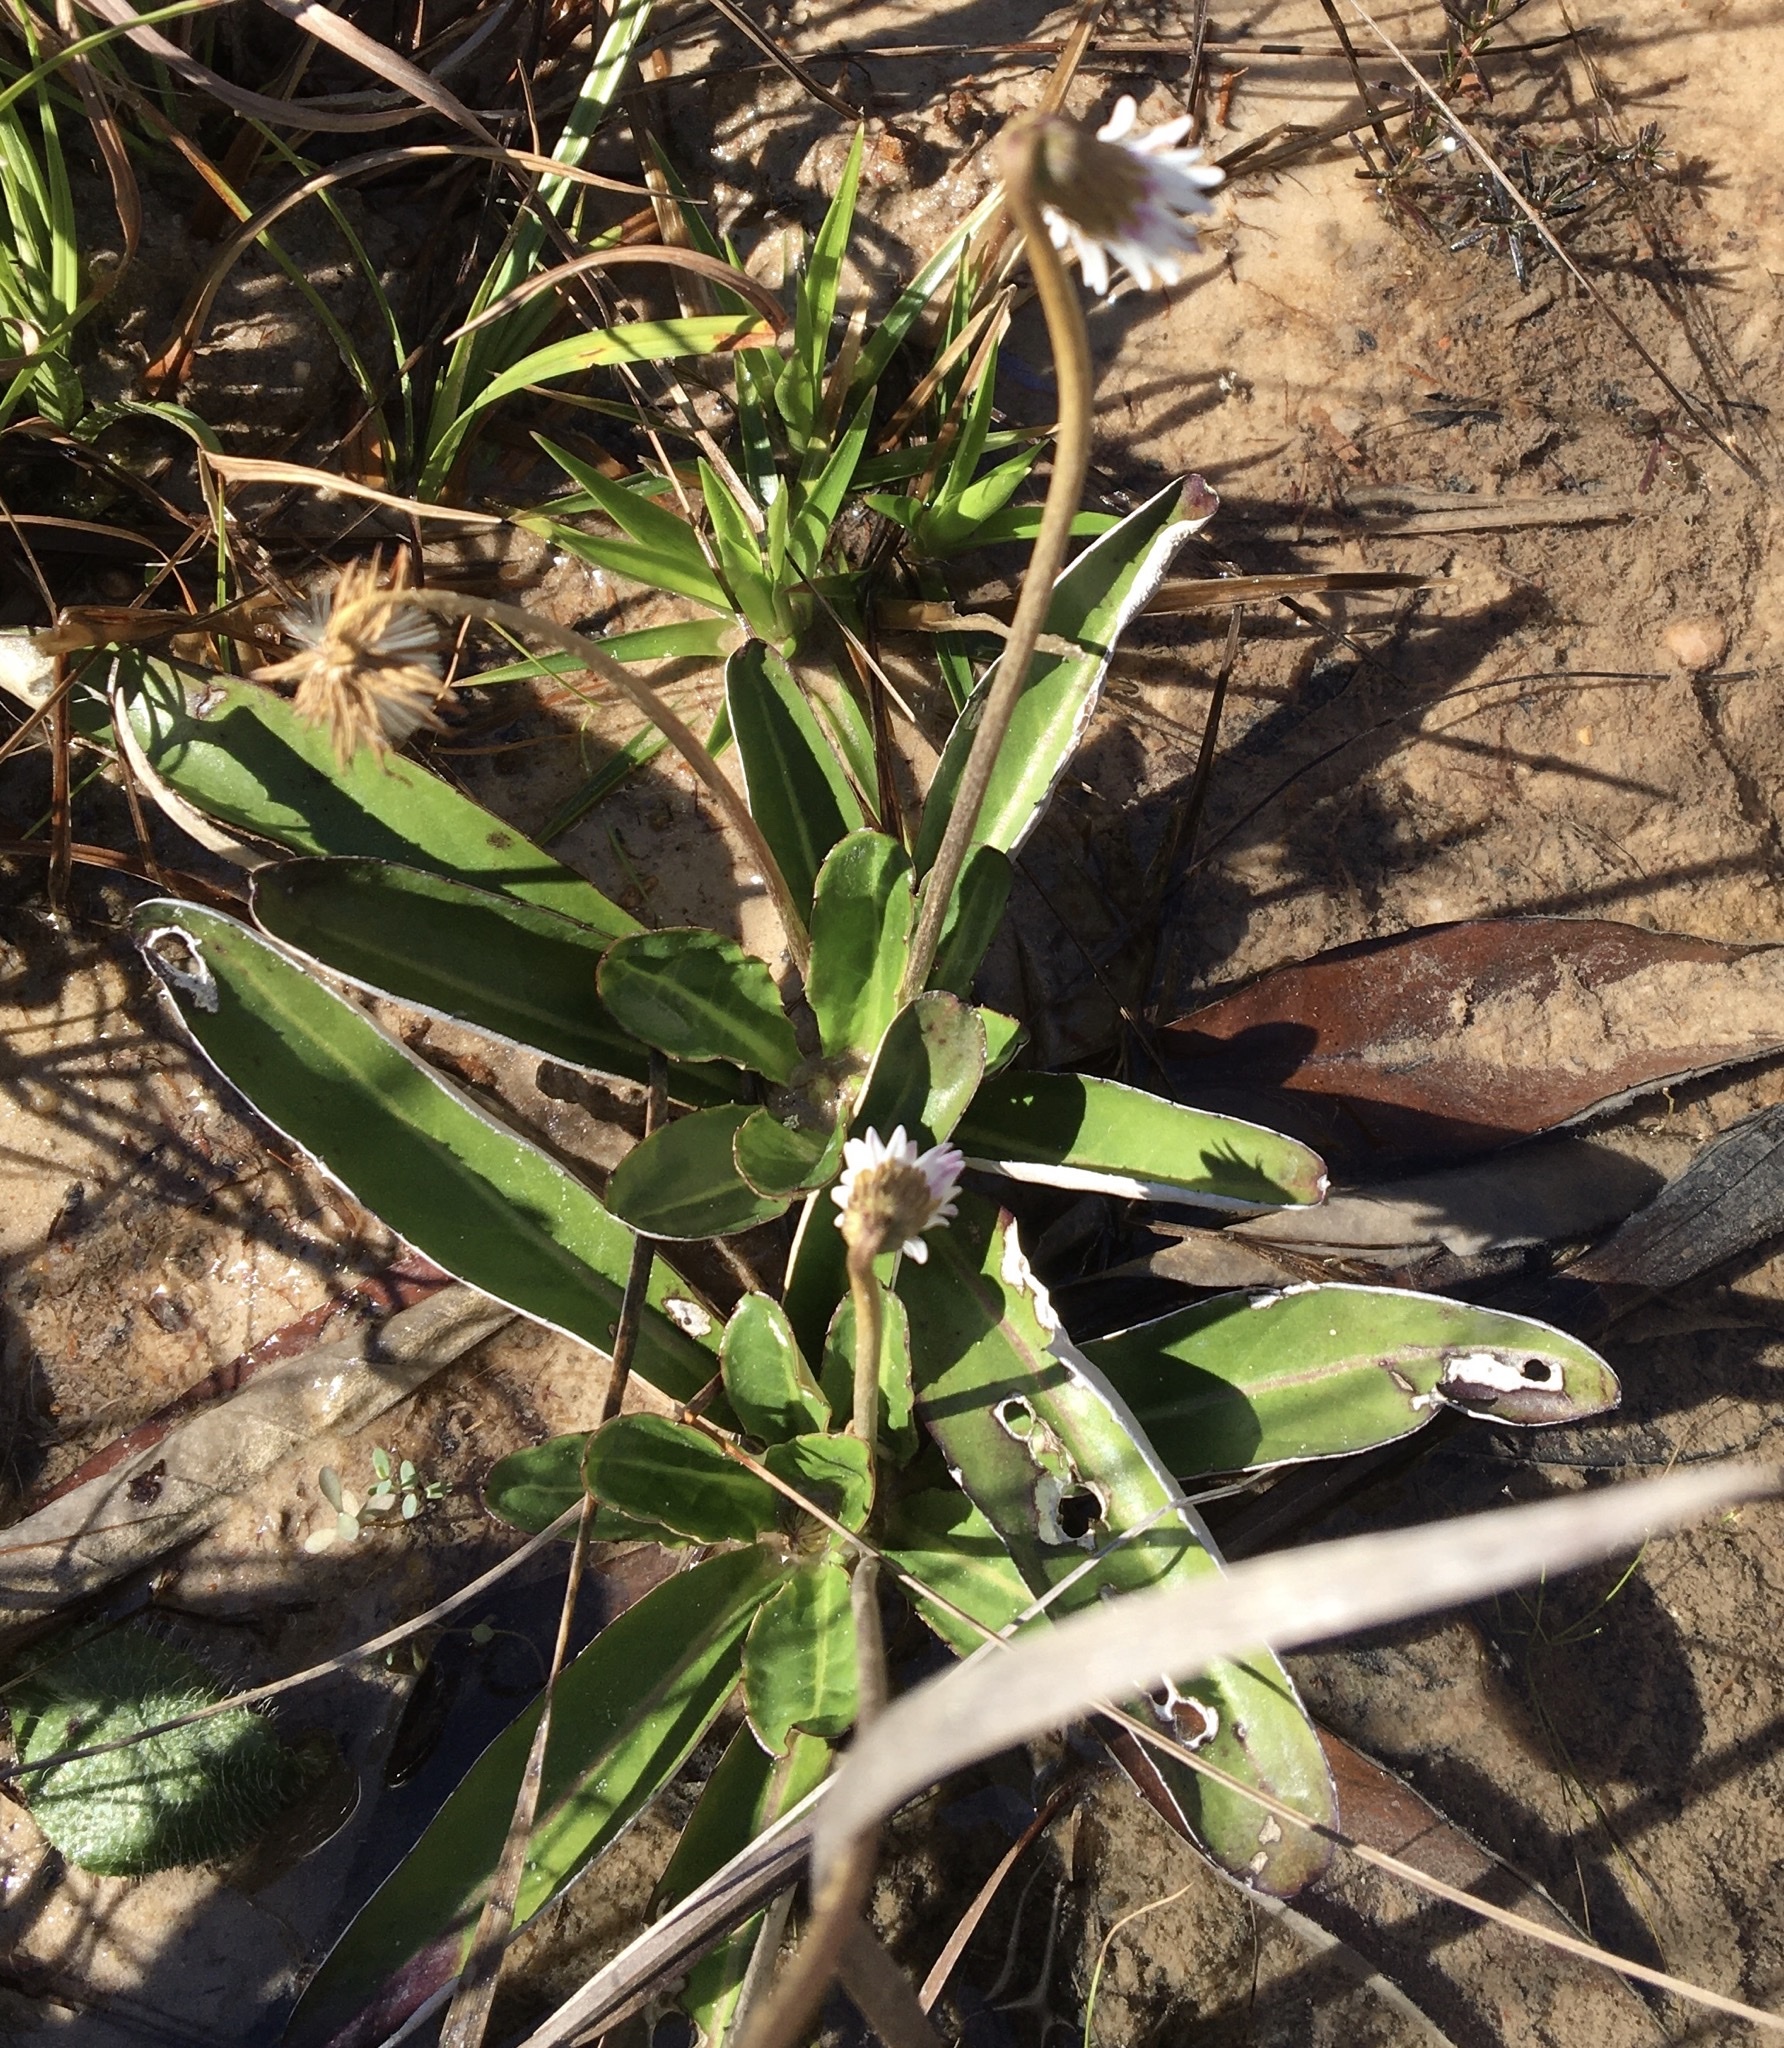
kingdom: Plantae
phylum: Tracheophyta
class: Magnoliopsida
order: Asterales
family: Asteraceae
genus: Chaptalia
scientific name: Chaptalia tomentosa
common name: Woolly sunbonnet
